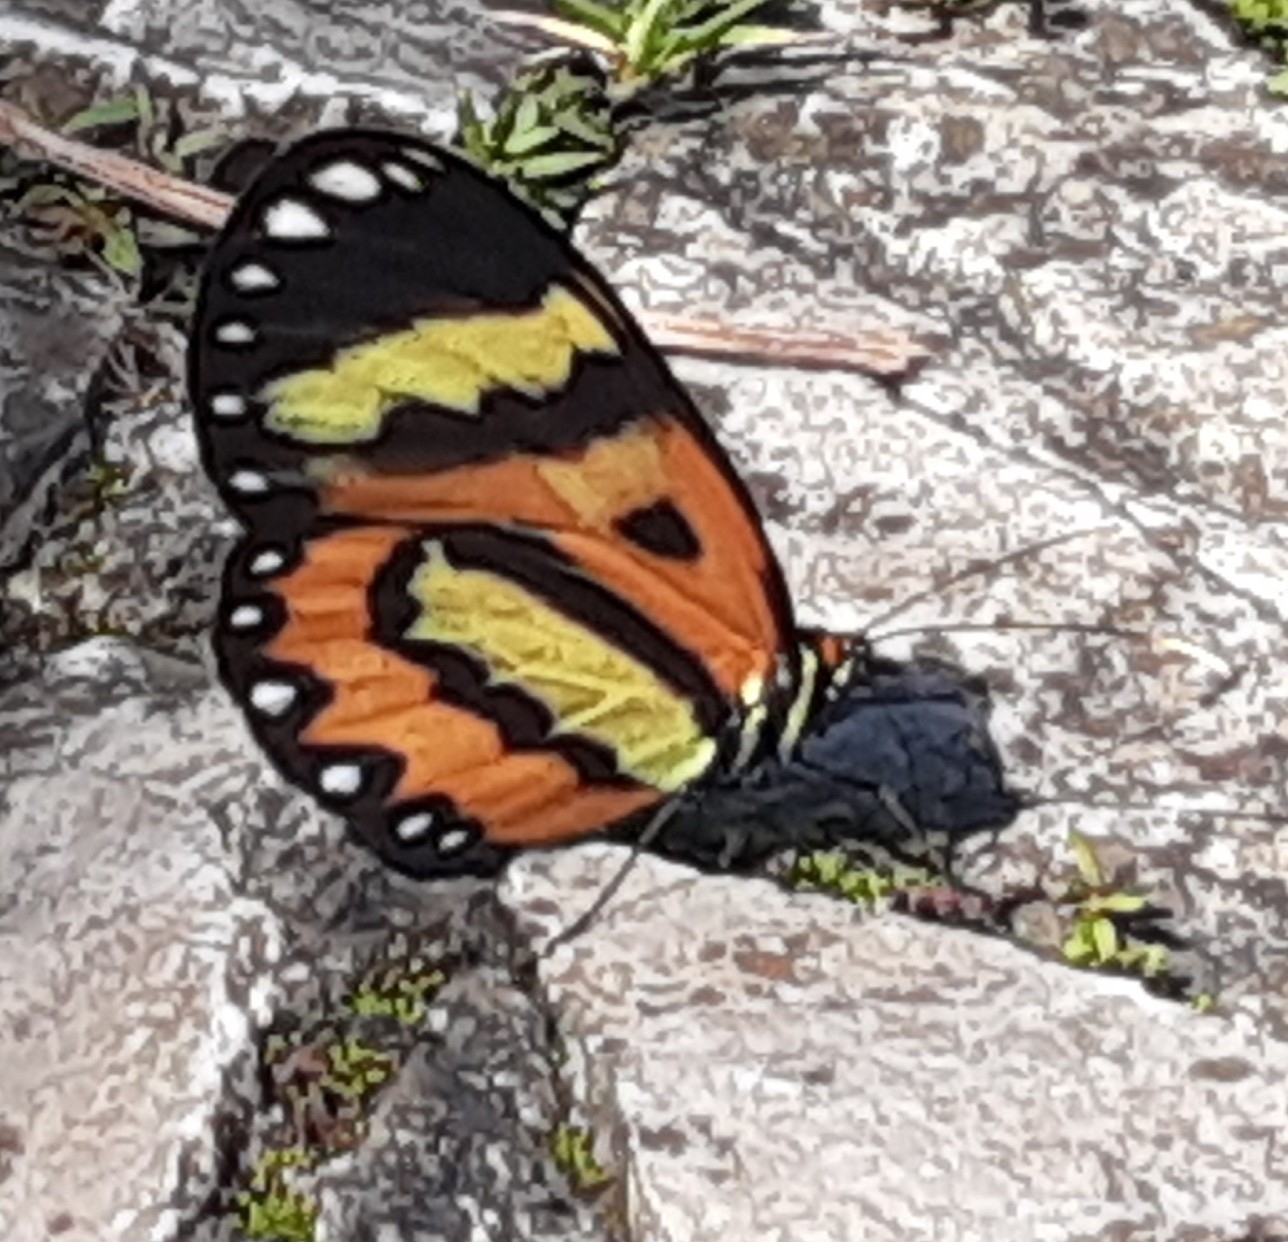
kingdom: Animalia
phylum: Arthropoda
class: Insecta
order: Lepidoptera
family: Nymphalidae
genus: Placidina
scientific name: Placidina euryanassa
